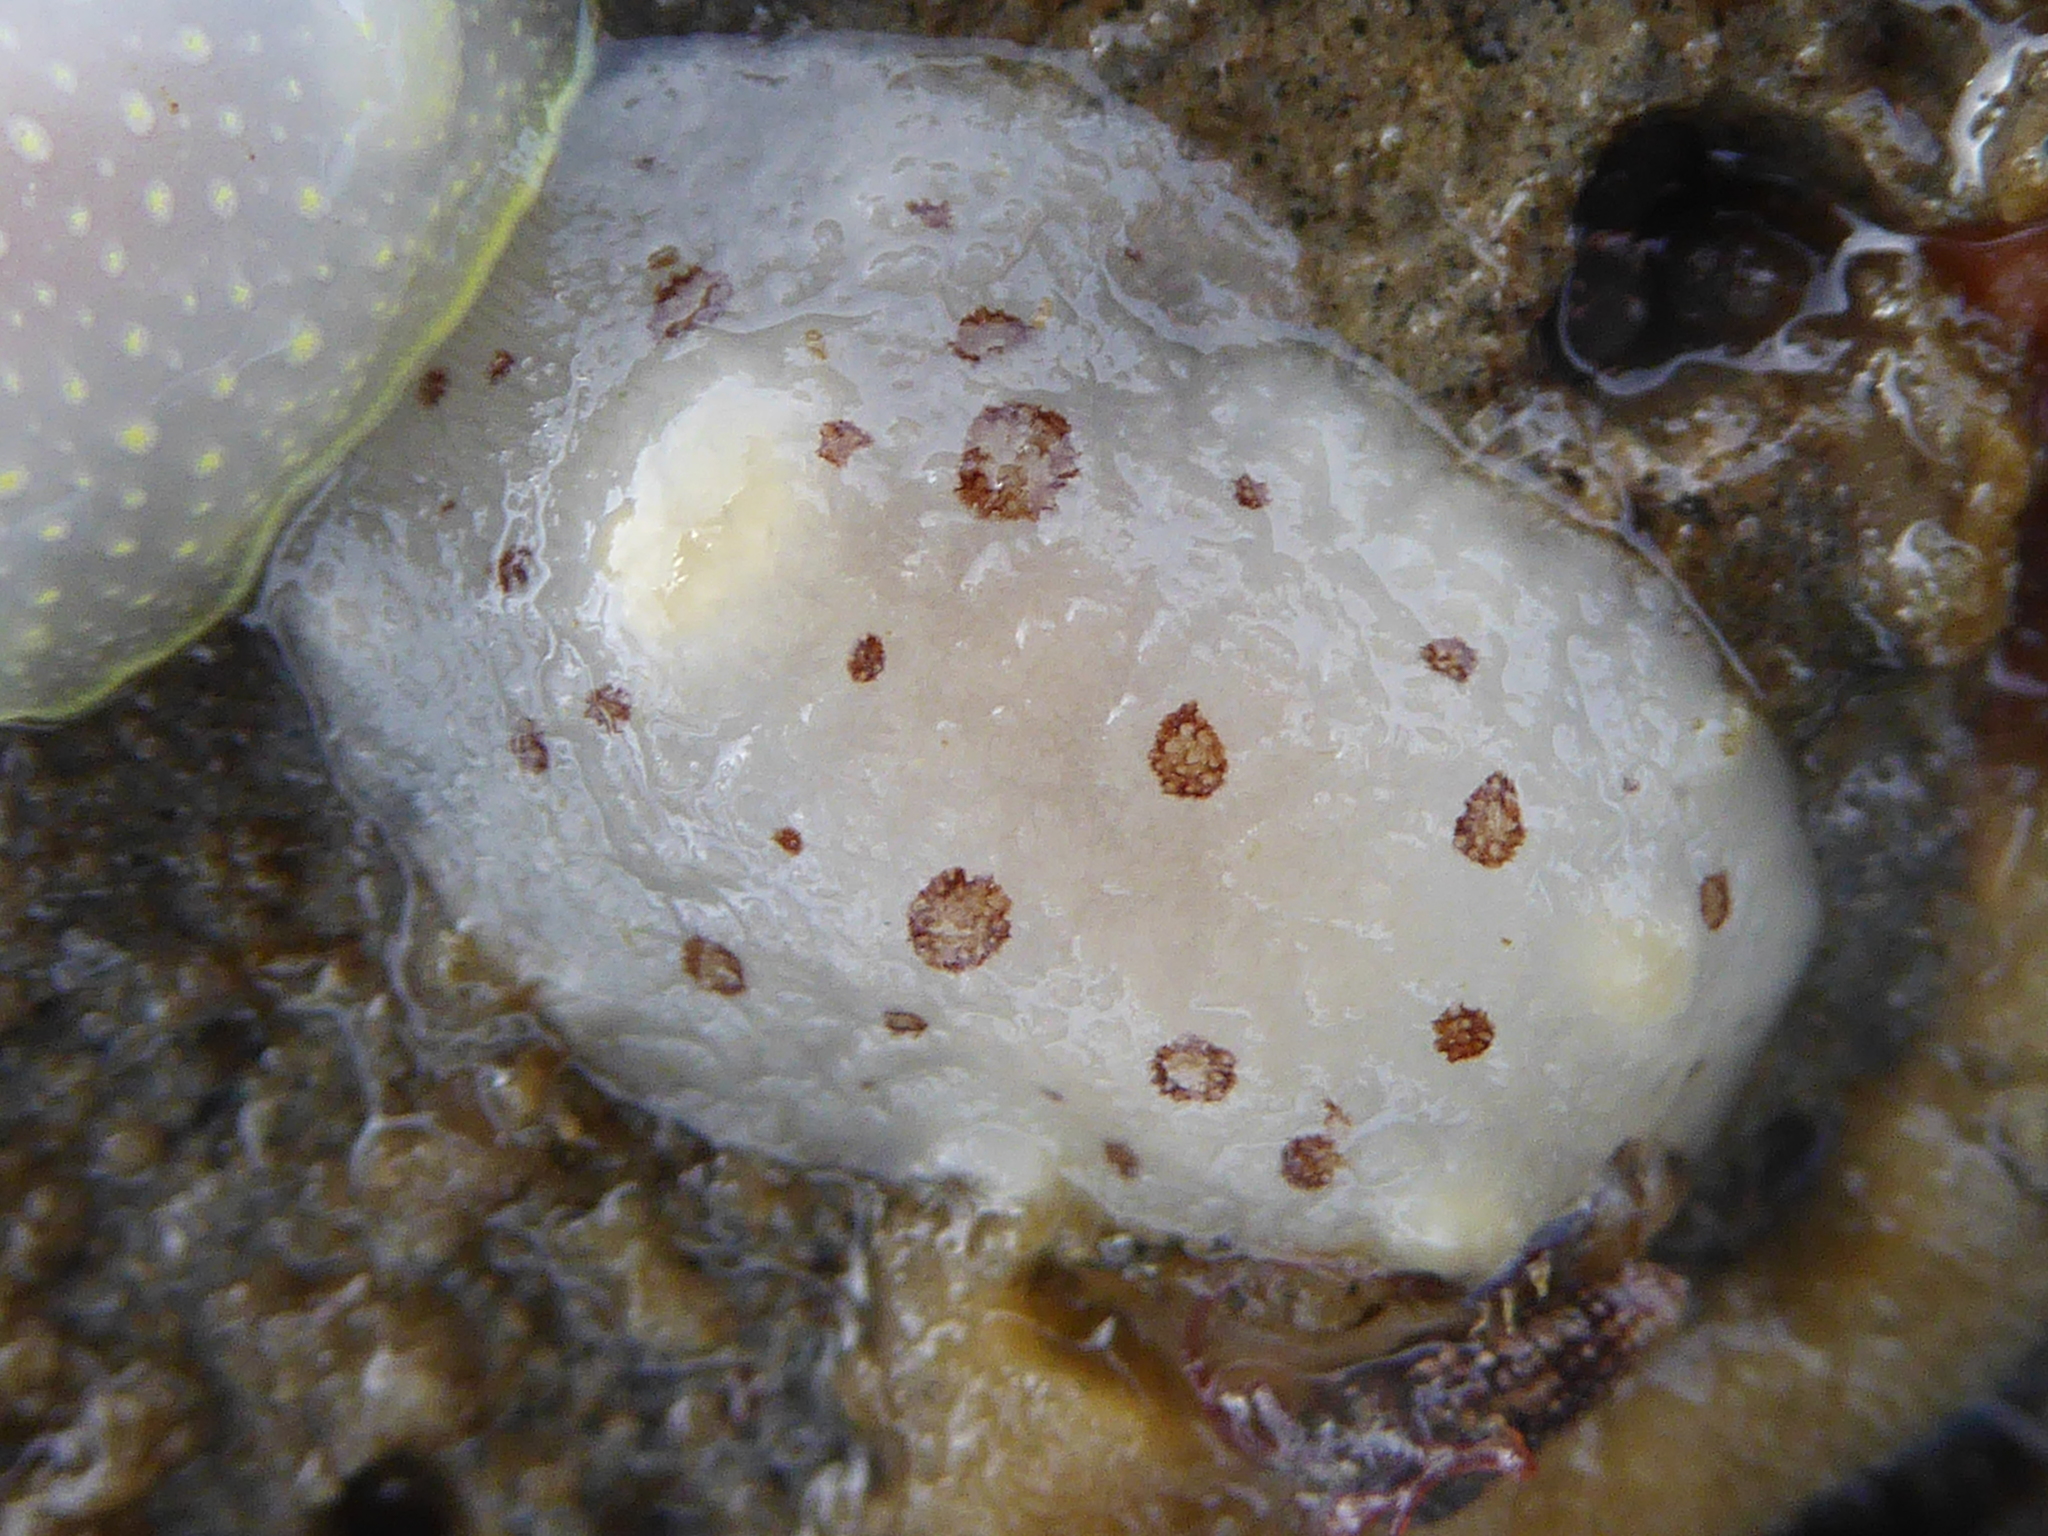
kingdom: Animalia
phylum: Mollusca
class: Gastropoda
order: Nudibranchia
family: Discodorididae
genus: Diaulula
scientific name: Diaulula odonoghuei
